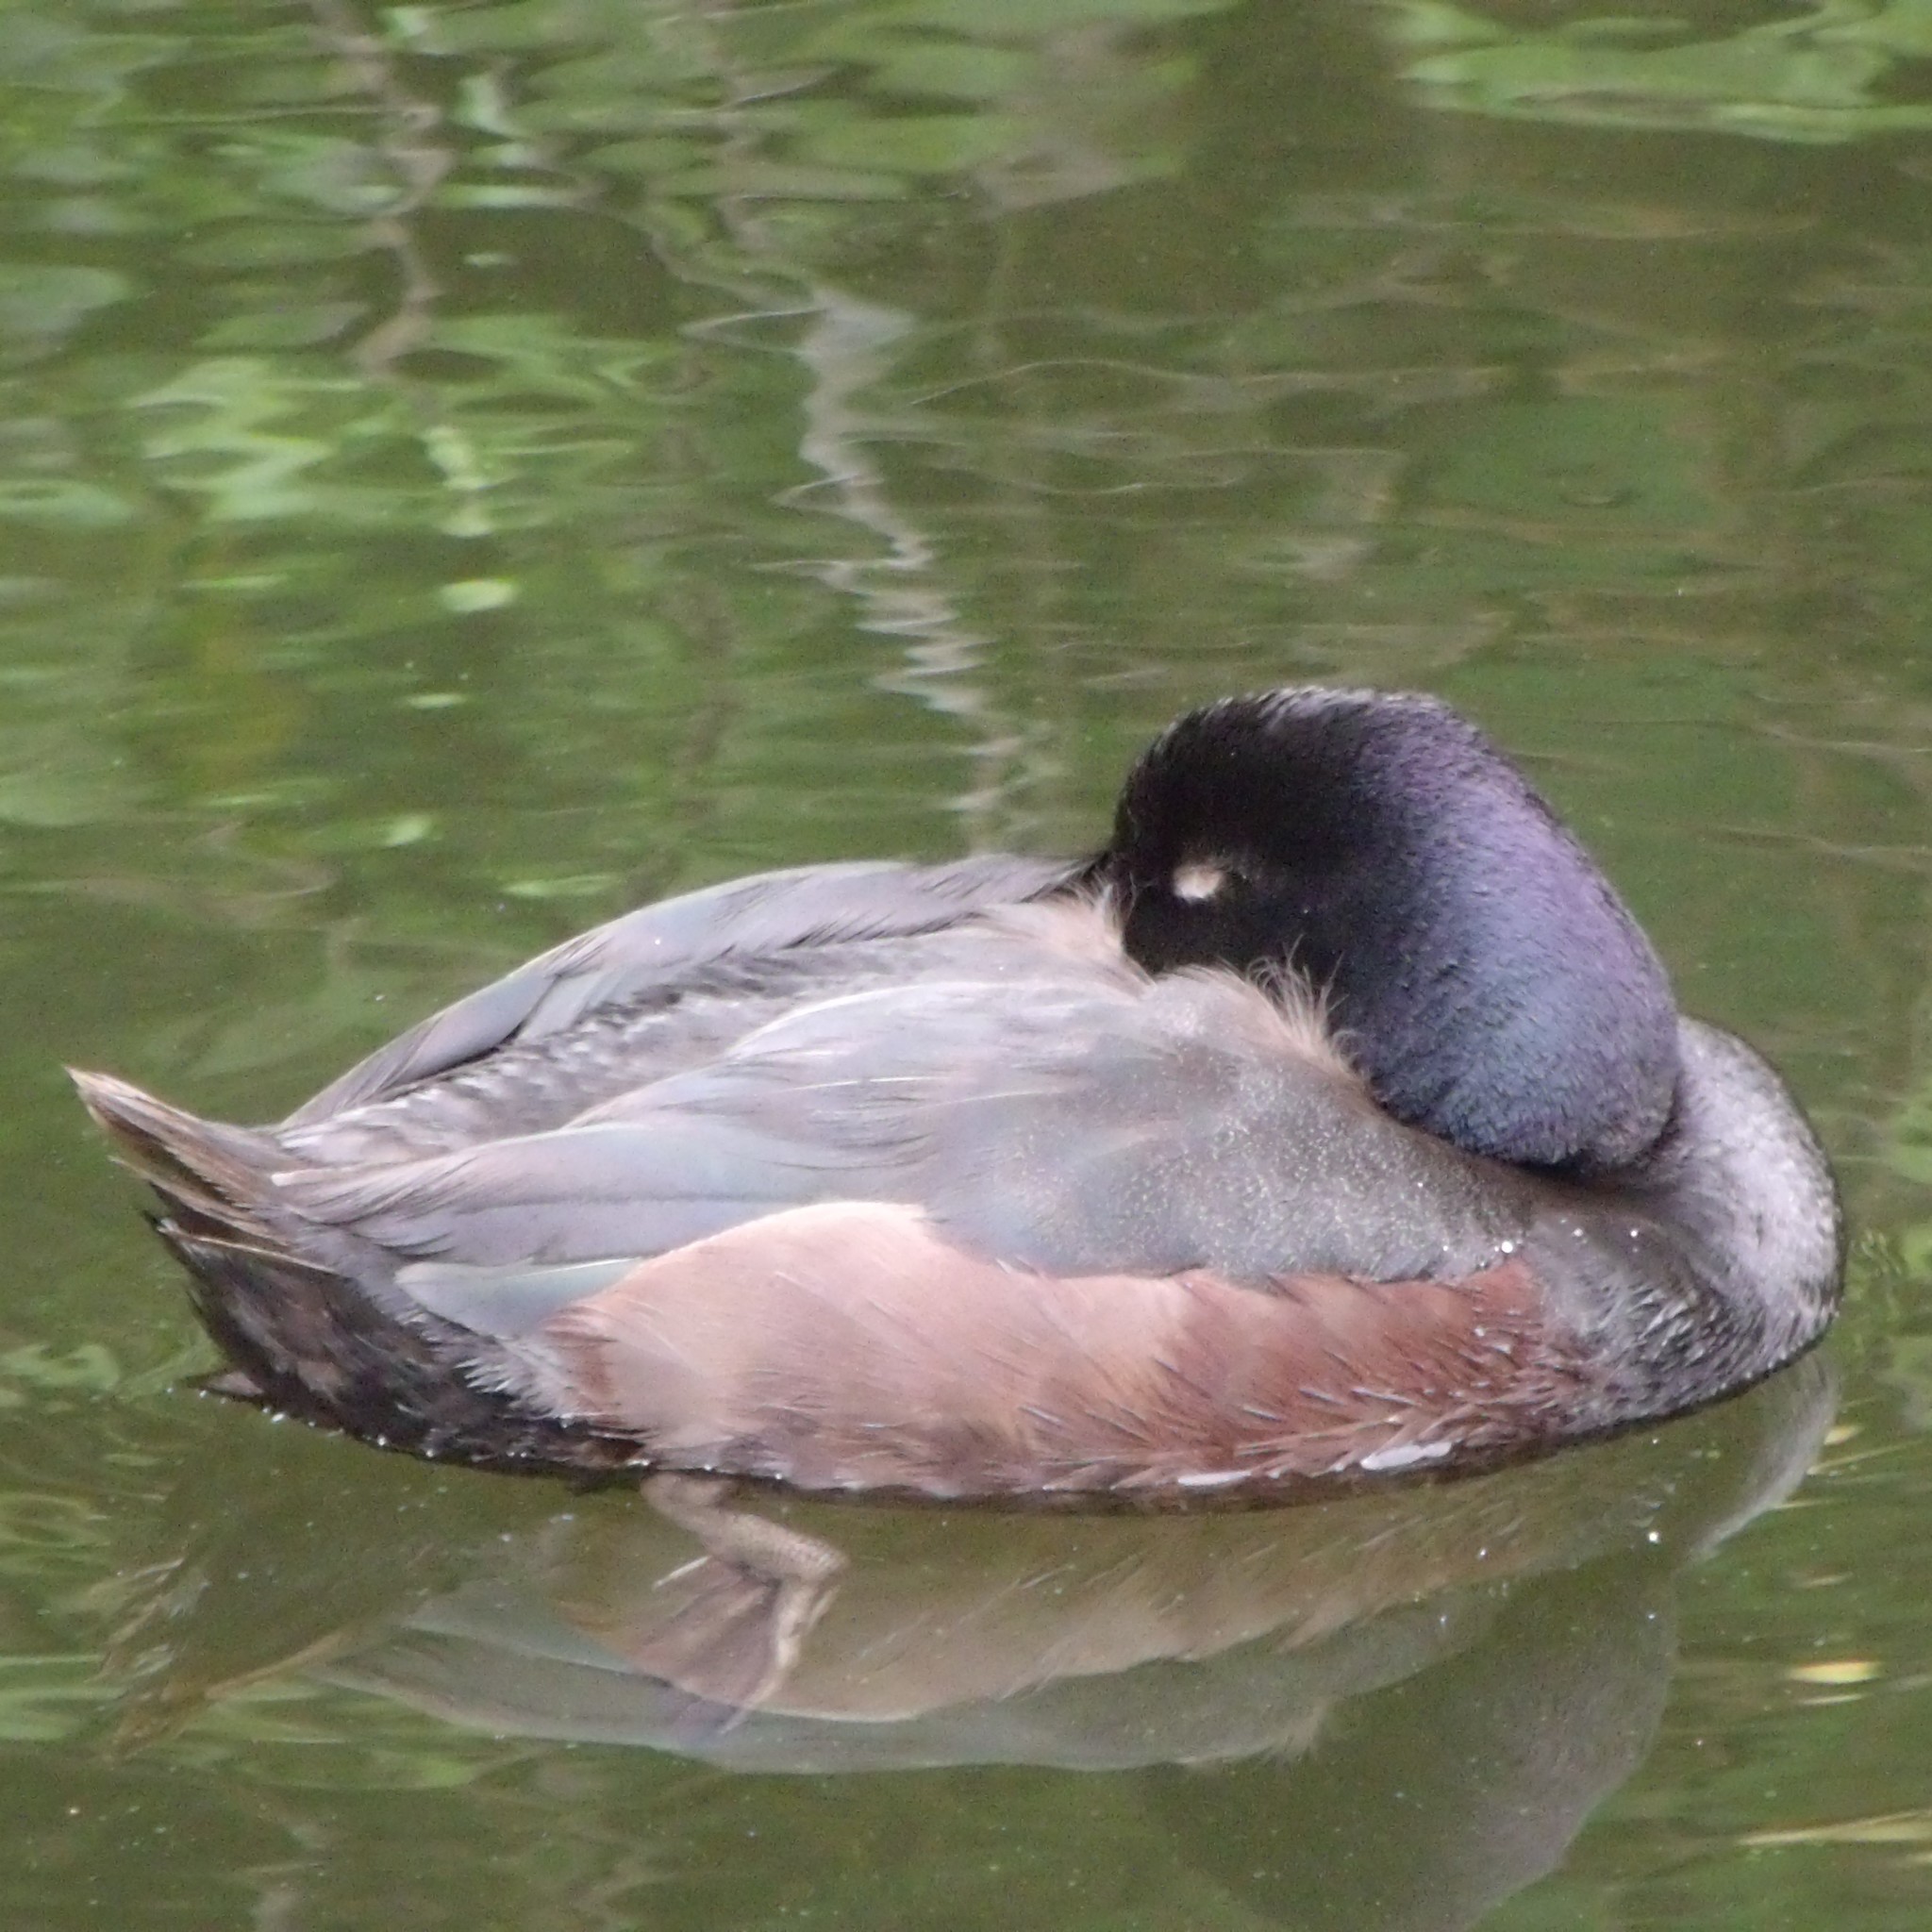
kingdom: Animalia
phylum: Chordata
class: Aves
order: Anseriformes
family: Anatidae
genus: Aythya
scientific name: Aythya novaeseelandiae
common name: New zealand scaup
